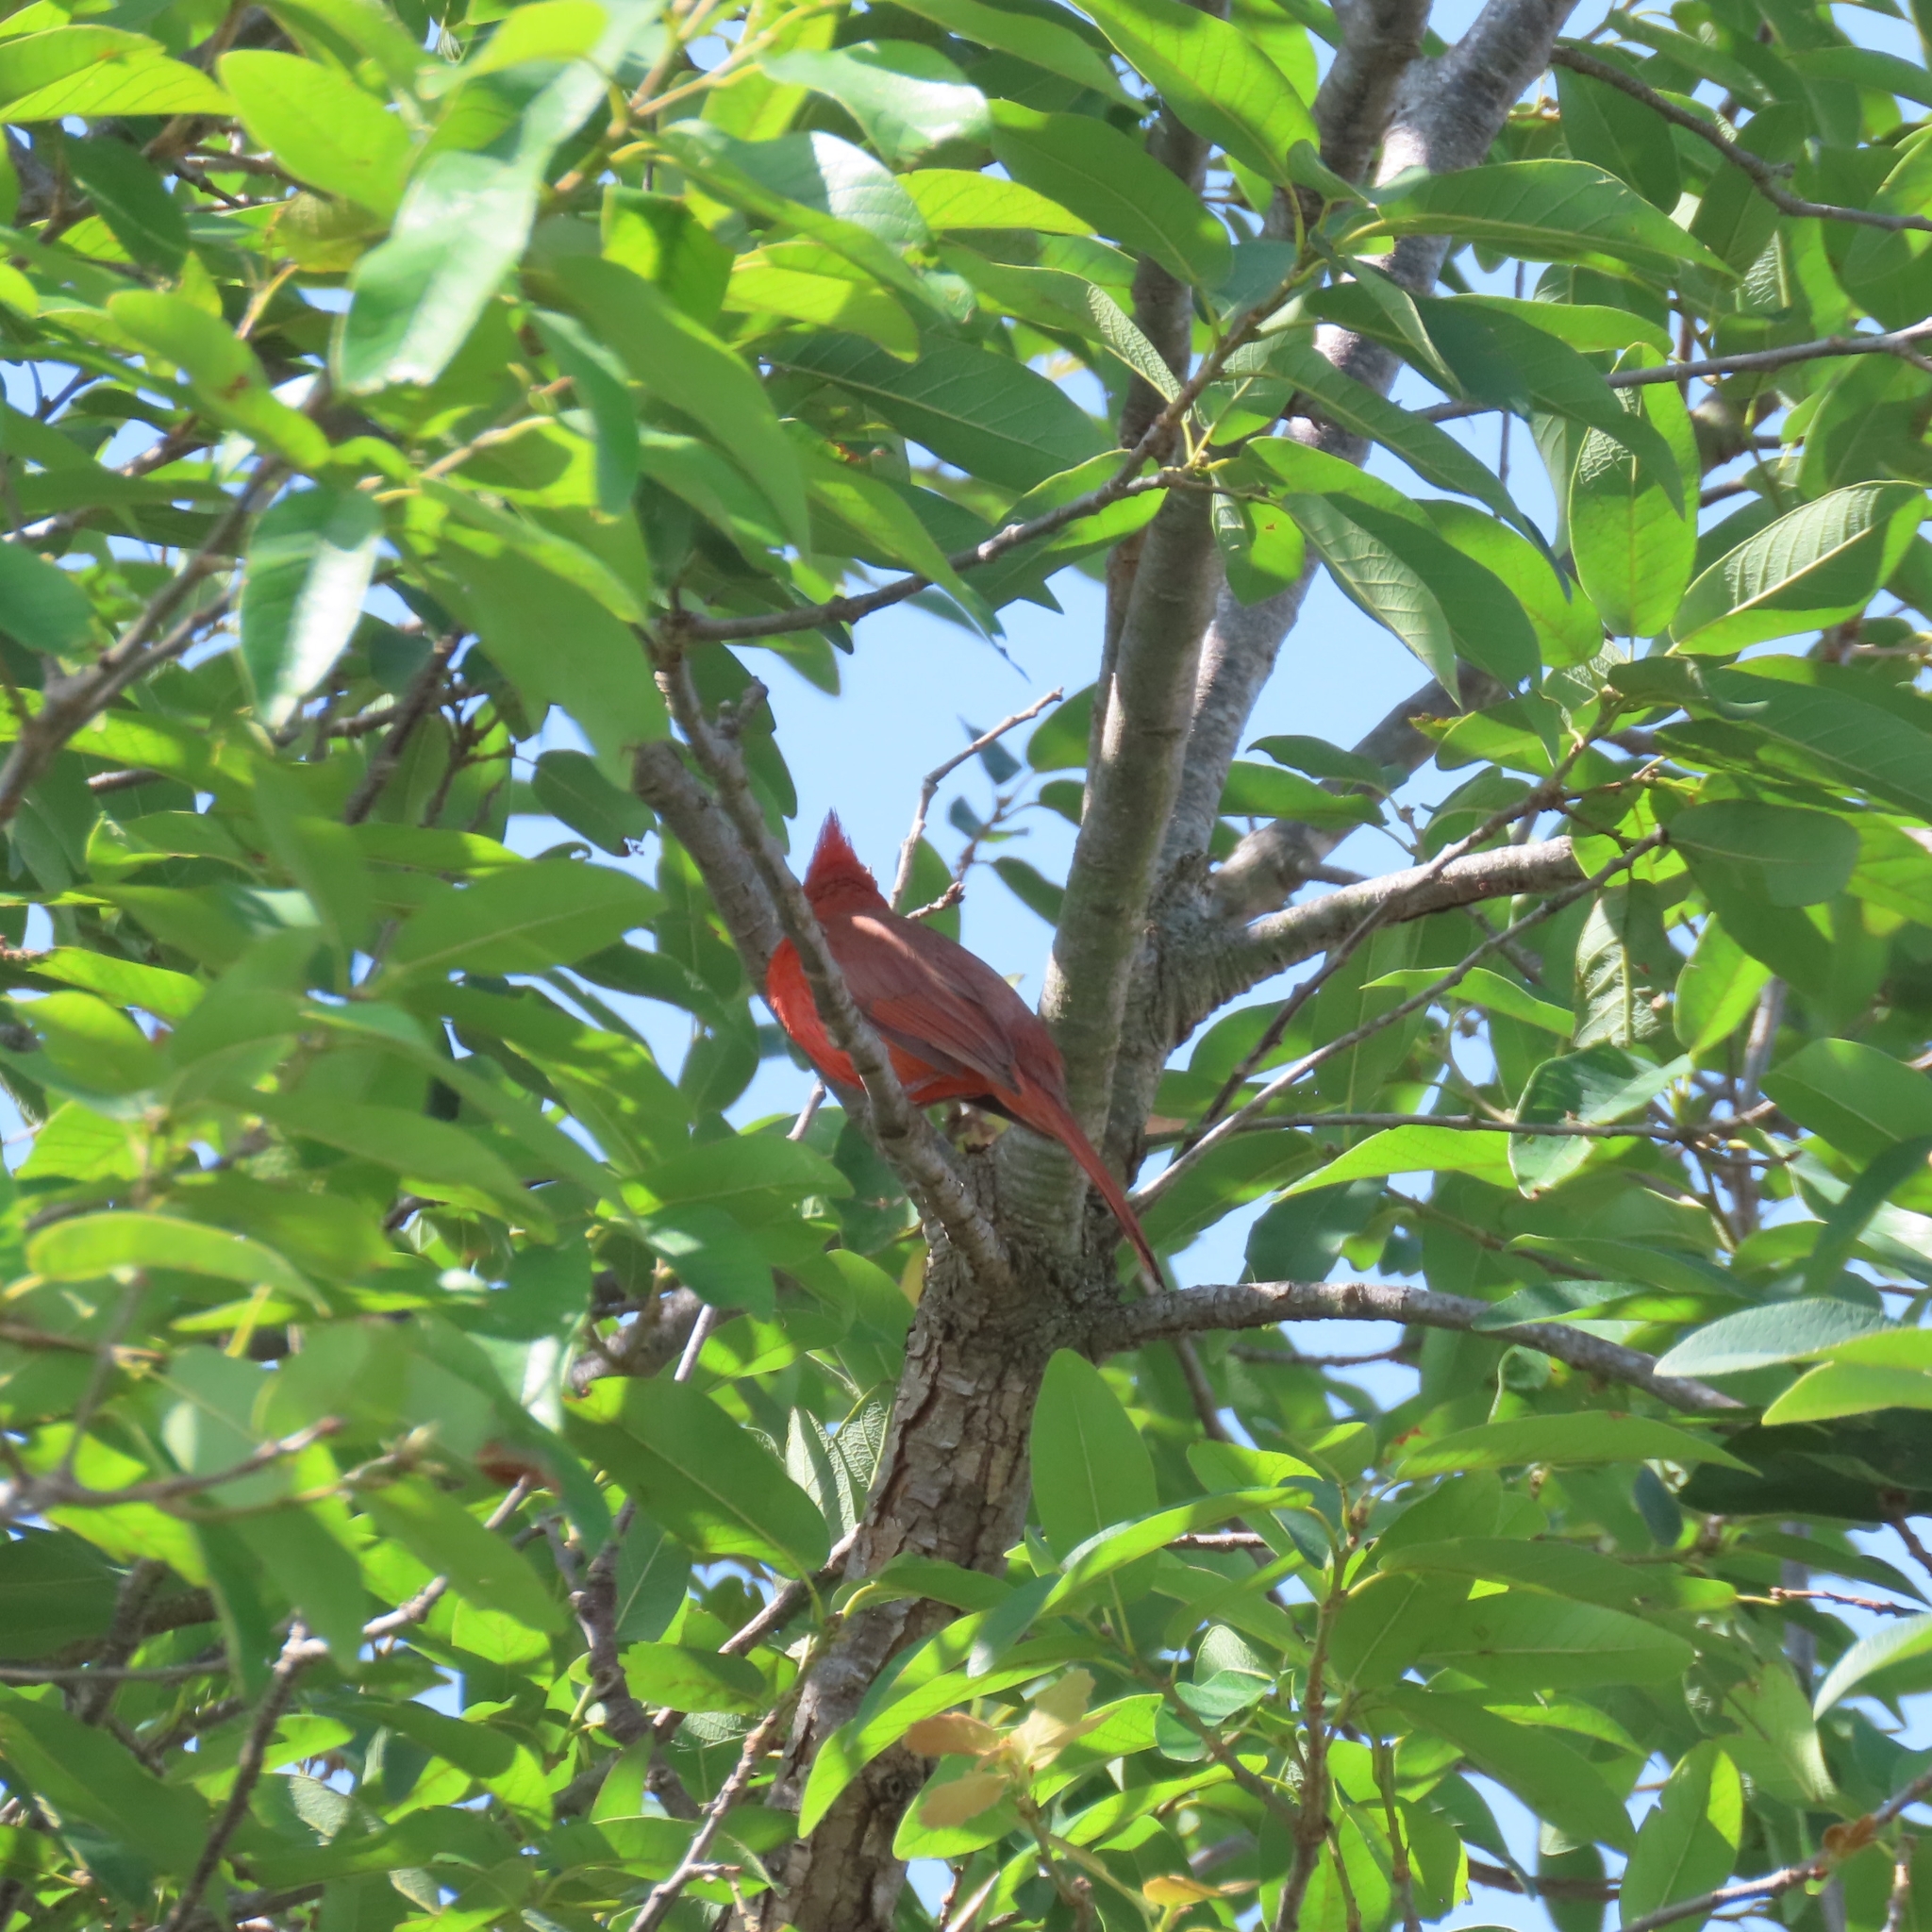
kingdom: Animalia
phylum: Chordata
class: Aves
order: Passeriformes
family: Cardinalidae
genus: Cardinalis
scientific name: Cardinalis cardinalis
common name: Northern cardinal
